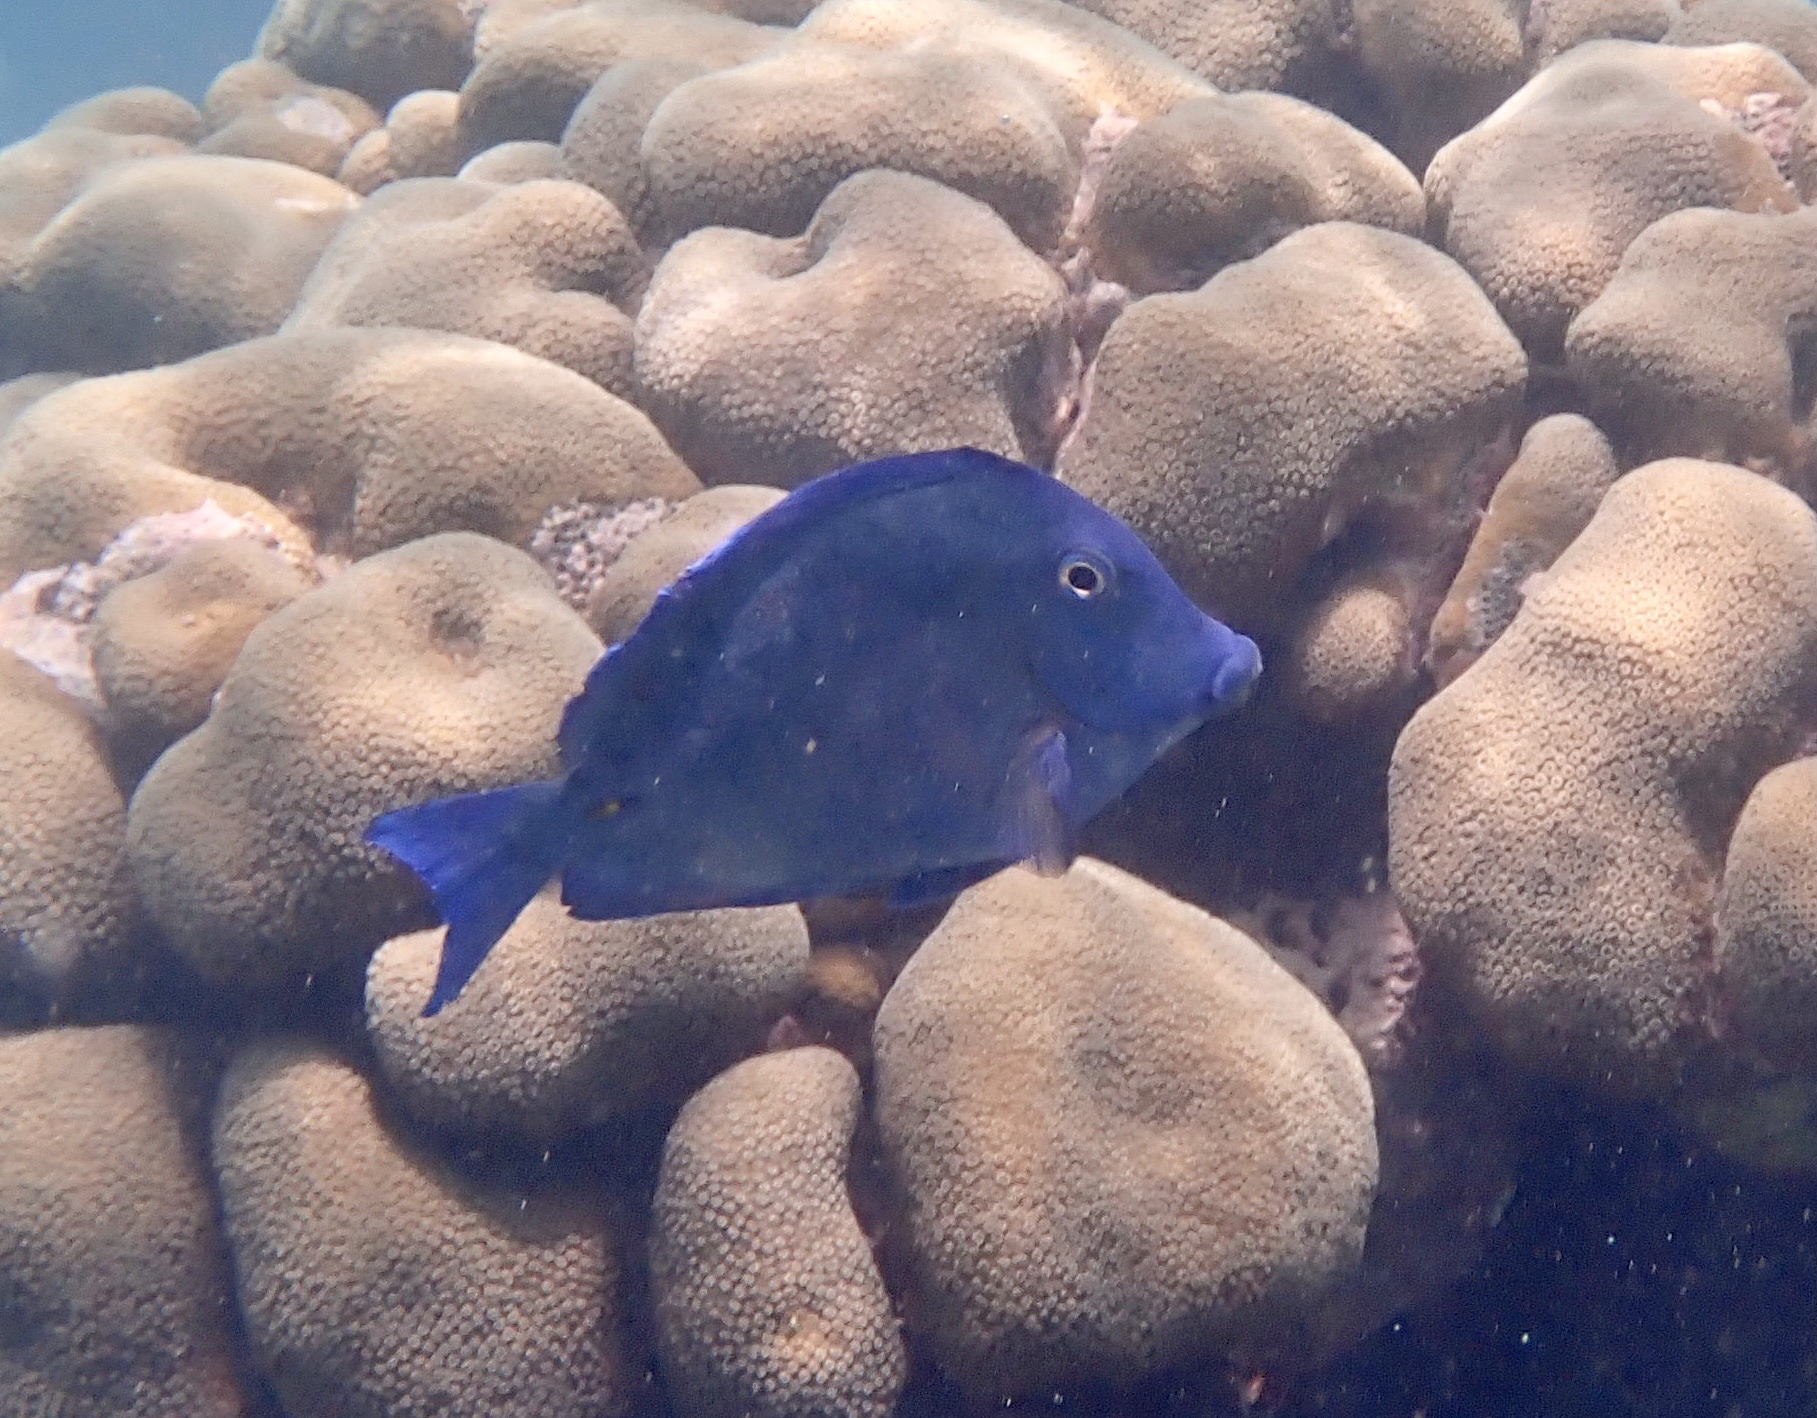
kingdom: Animalia
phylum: Chordata
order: Perciformes
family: Acanthuridae
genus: Acanthurus
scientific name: Acanthurus coeruleus
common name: Blue tang
